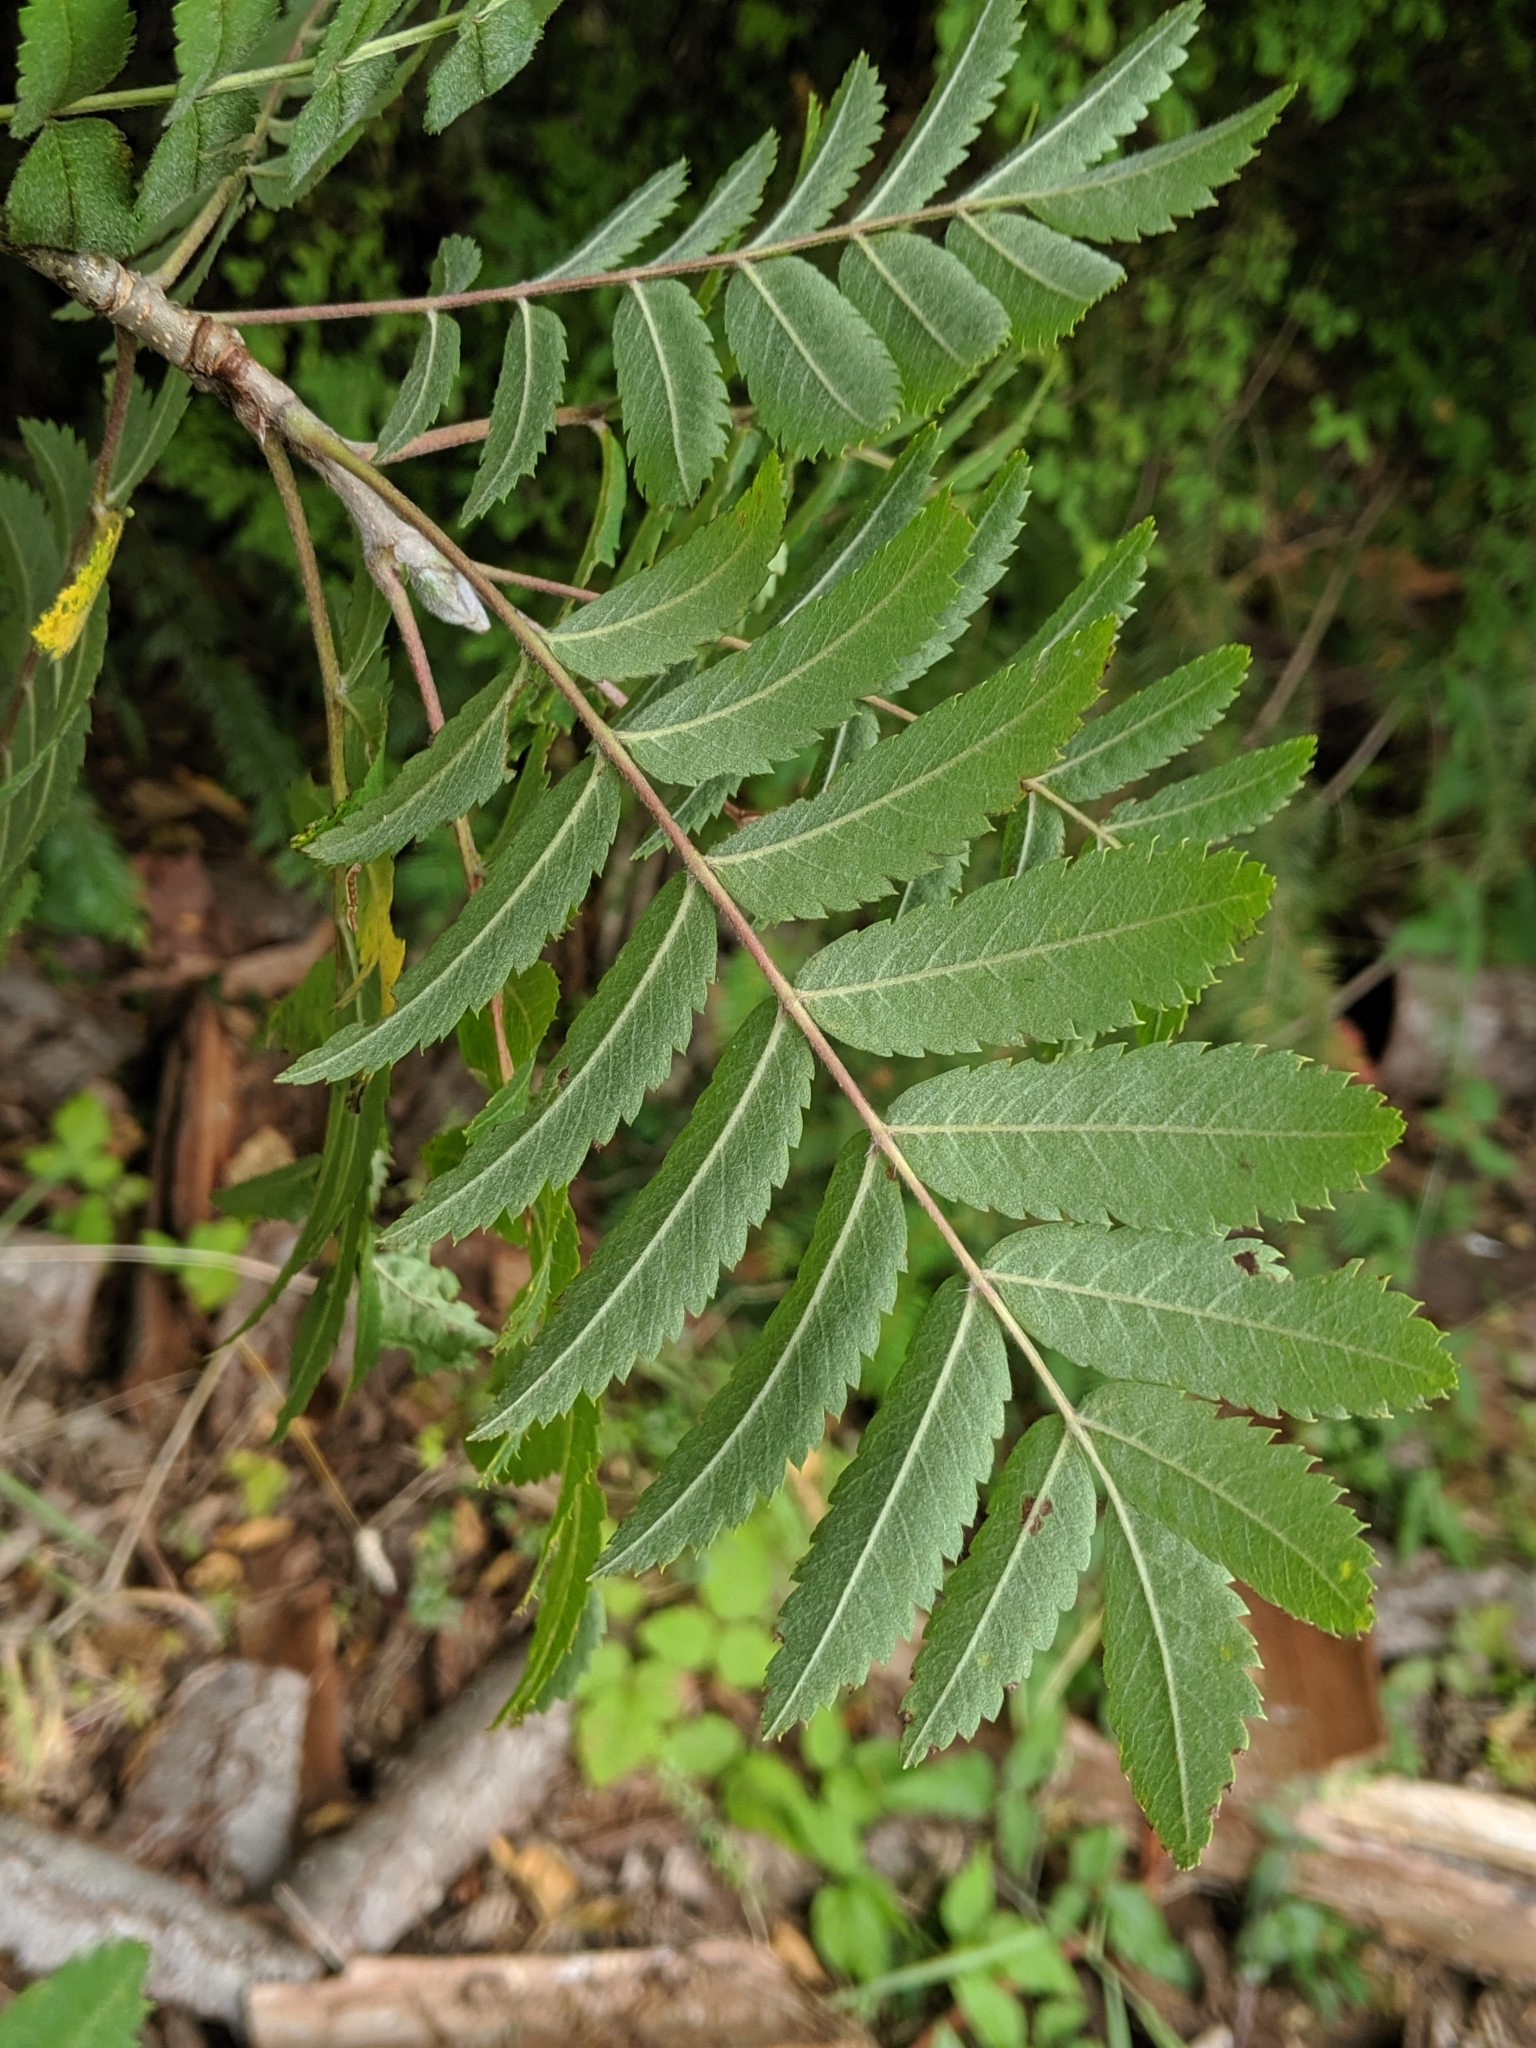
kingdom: Plantae
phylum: Tracheophyta
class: Magnoliopsida
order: Rosales
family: Rosaceae
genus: Sorbus
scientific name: Sorbus aucuparia
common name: Rowan
